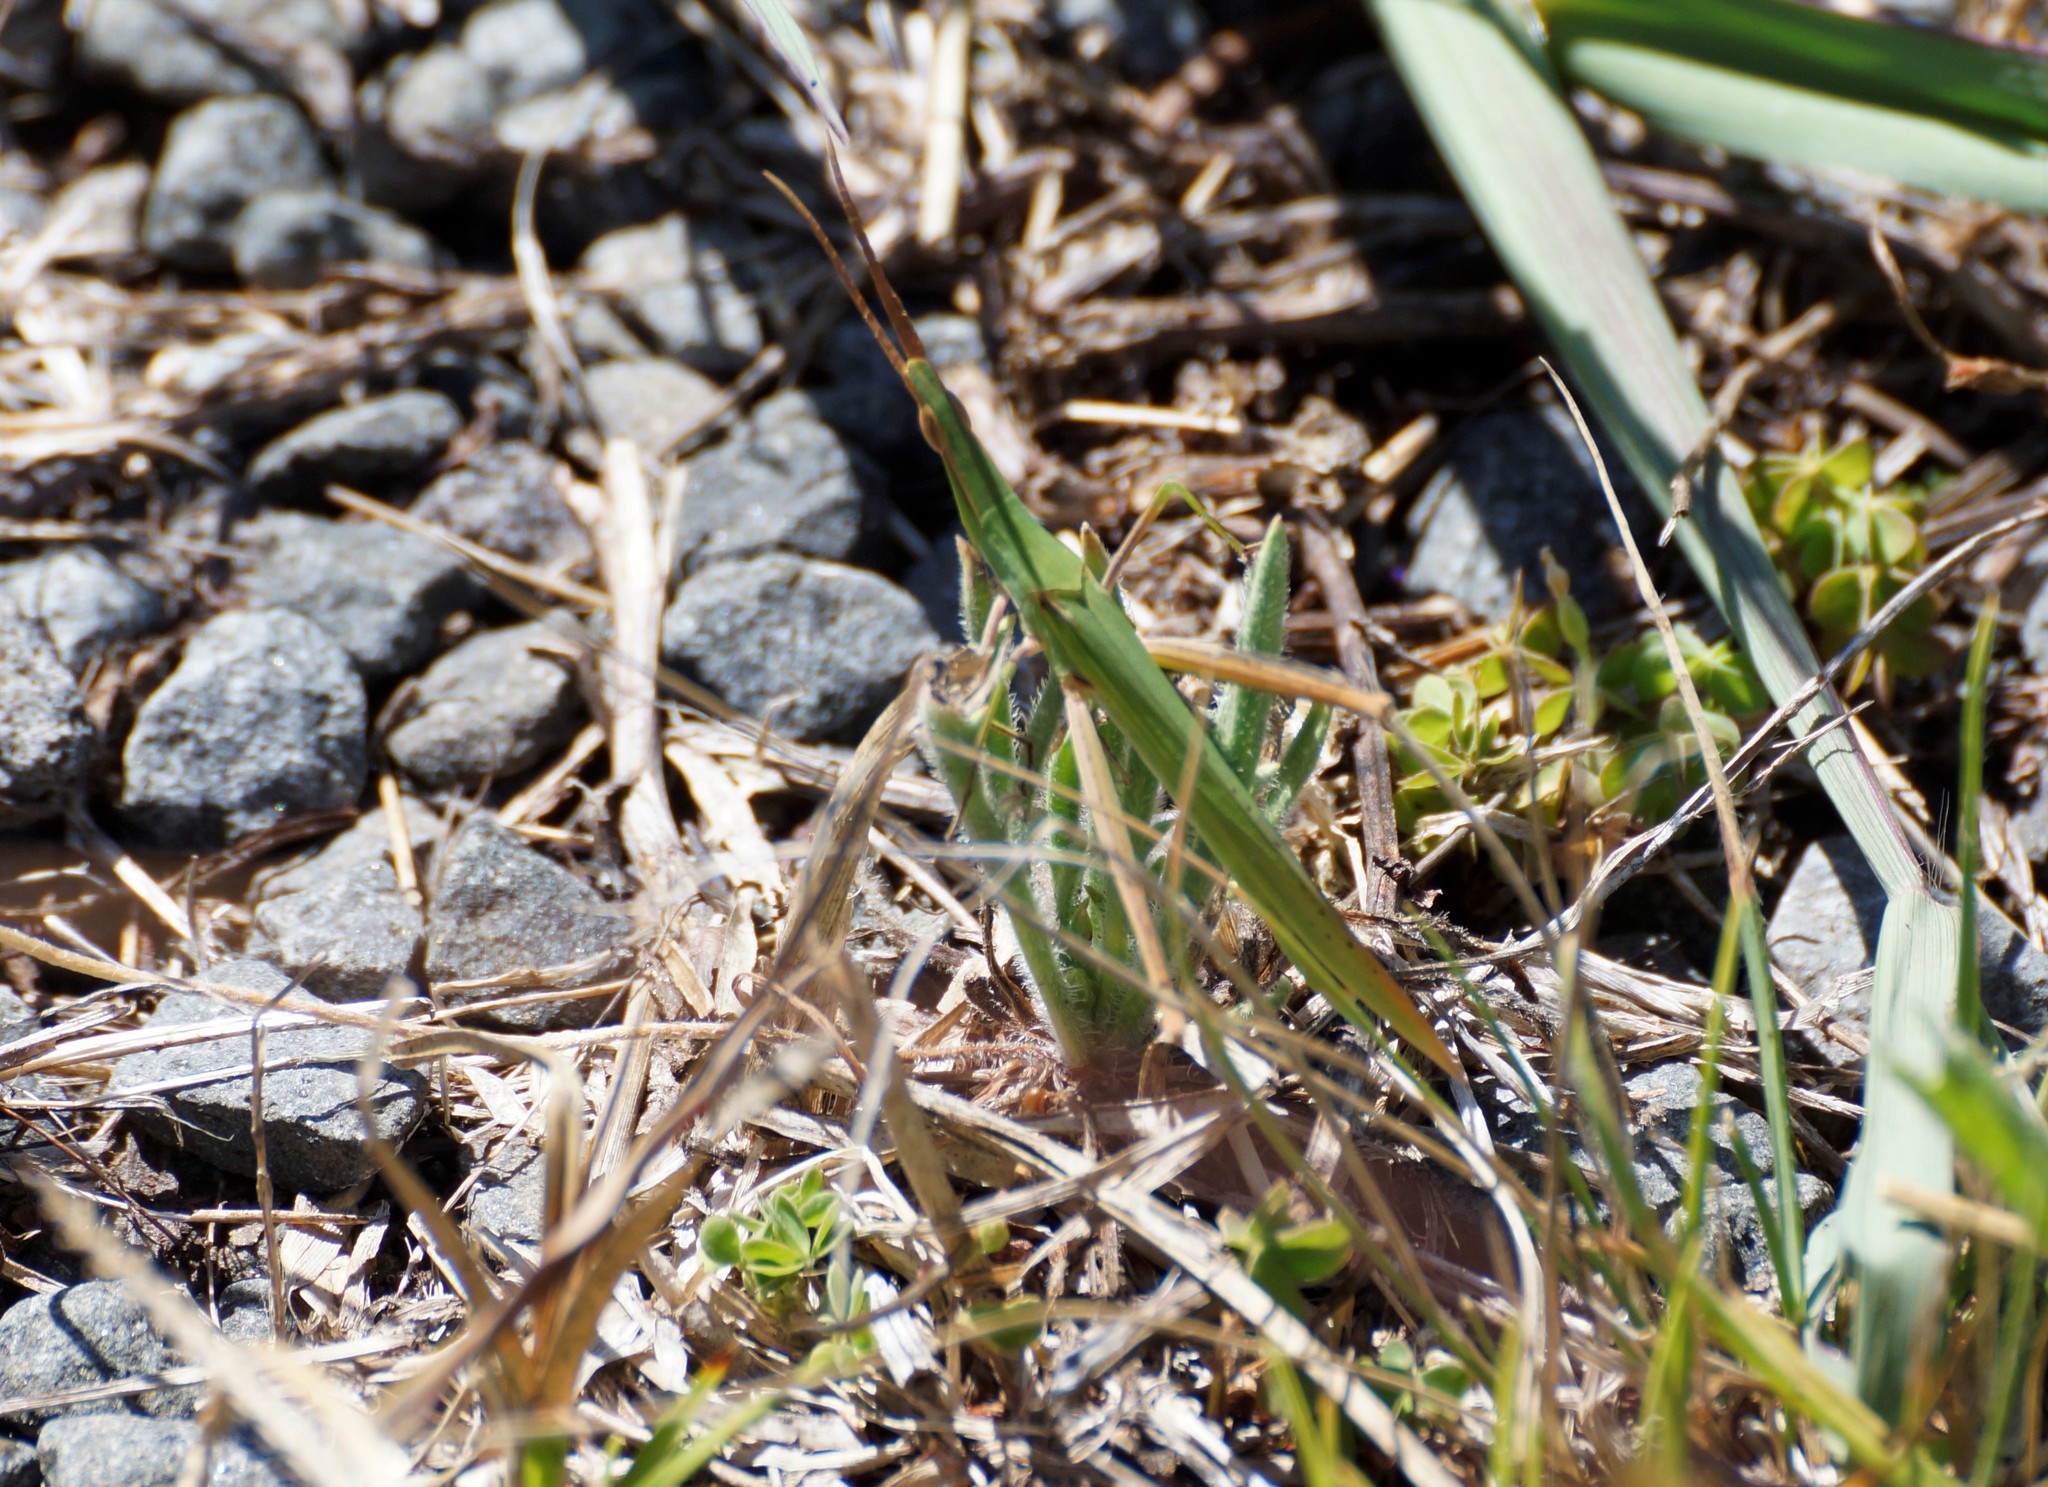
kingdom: Animalia
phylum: Arthropoda
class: Insecta
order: Orthoptera
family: Acrididae
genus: Acrida
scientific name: Acrida conica
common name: Giant green slantface
